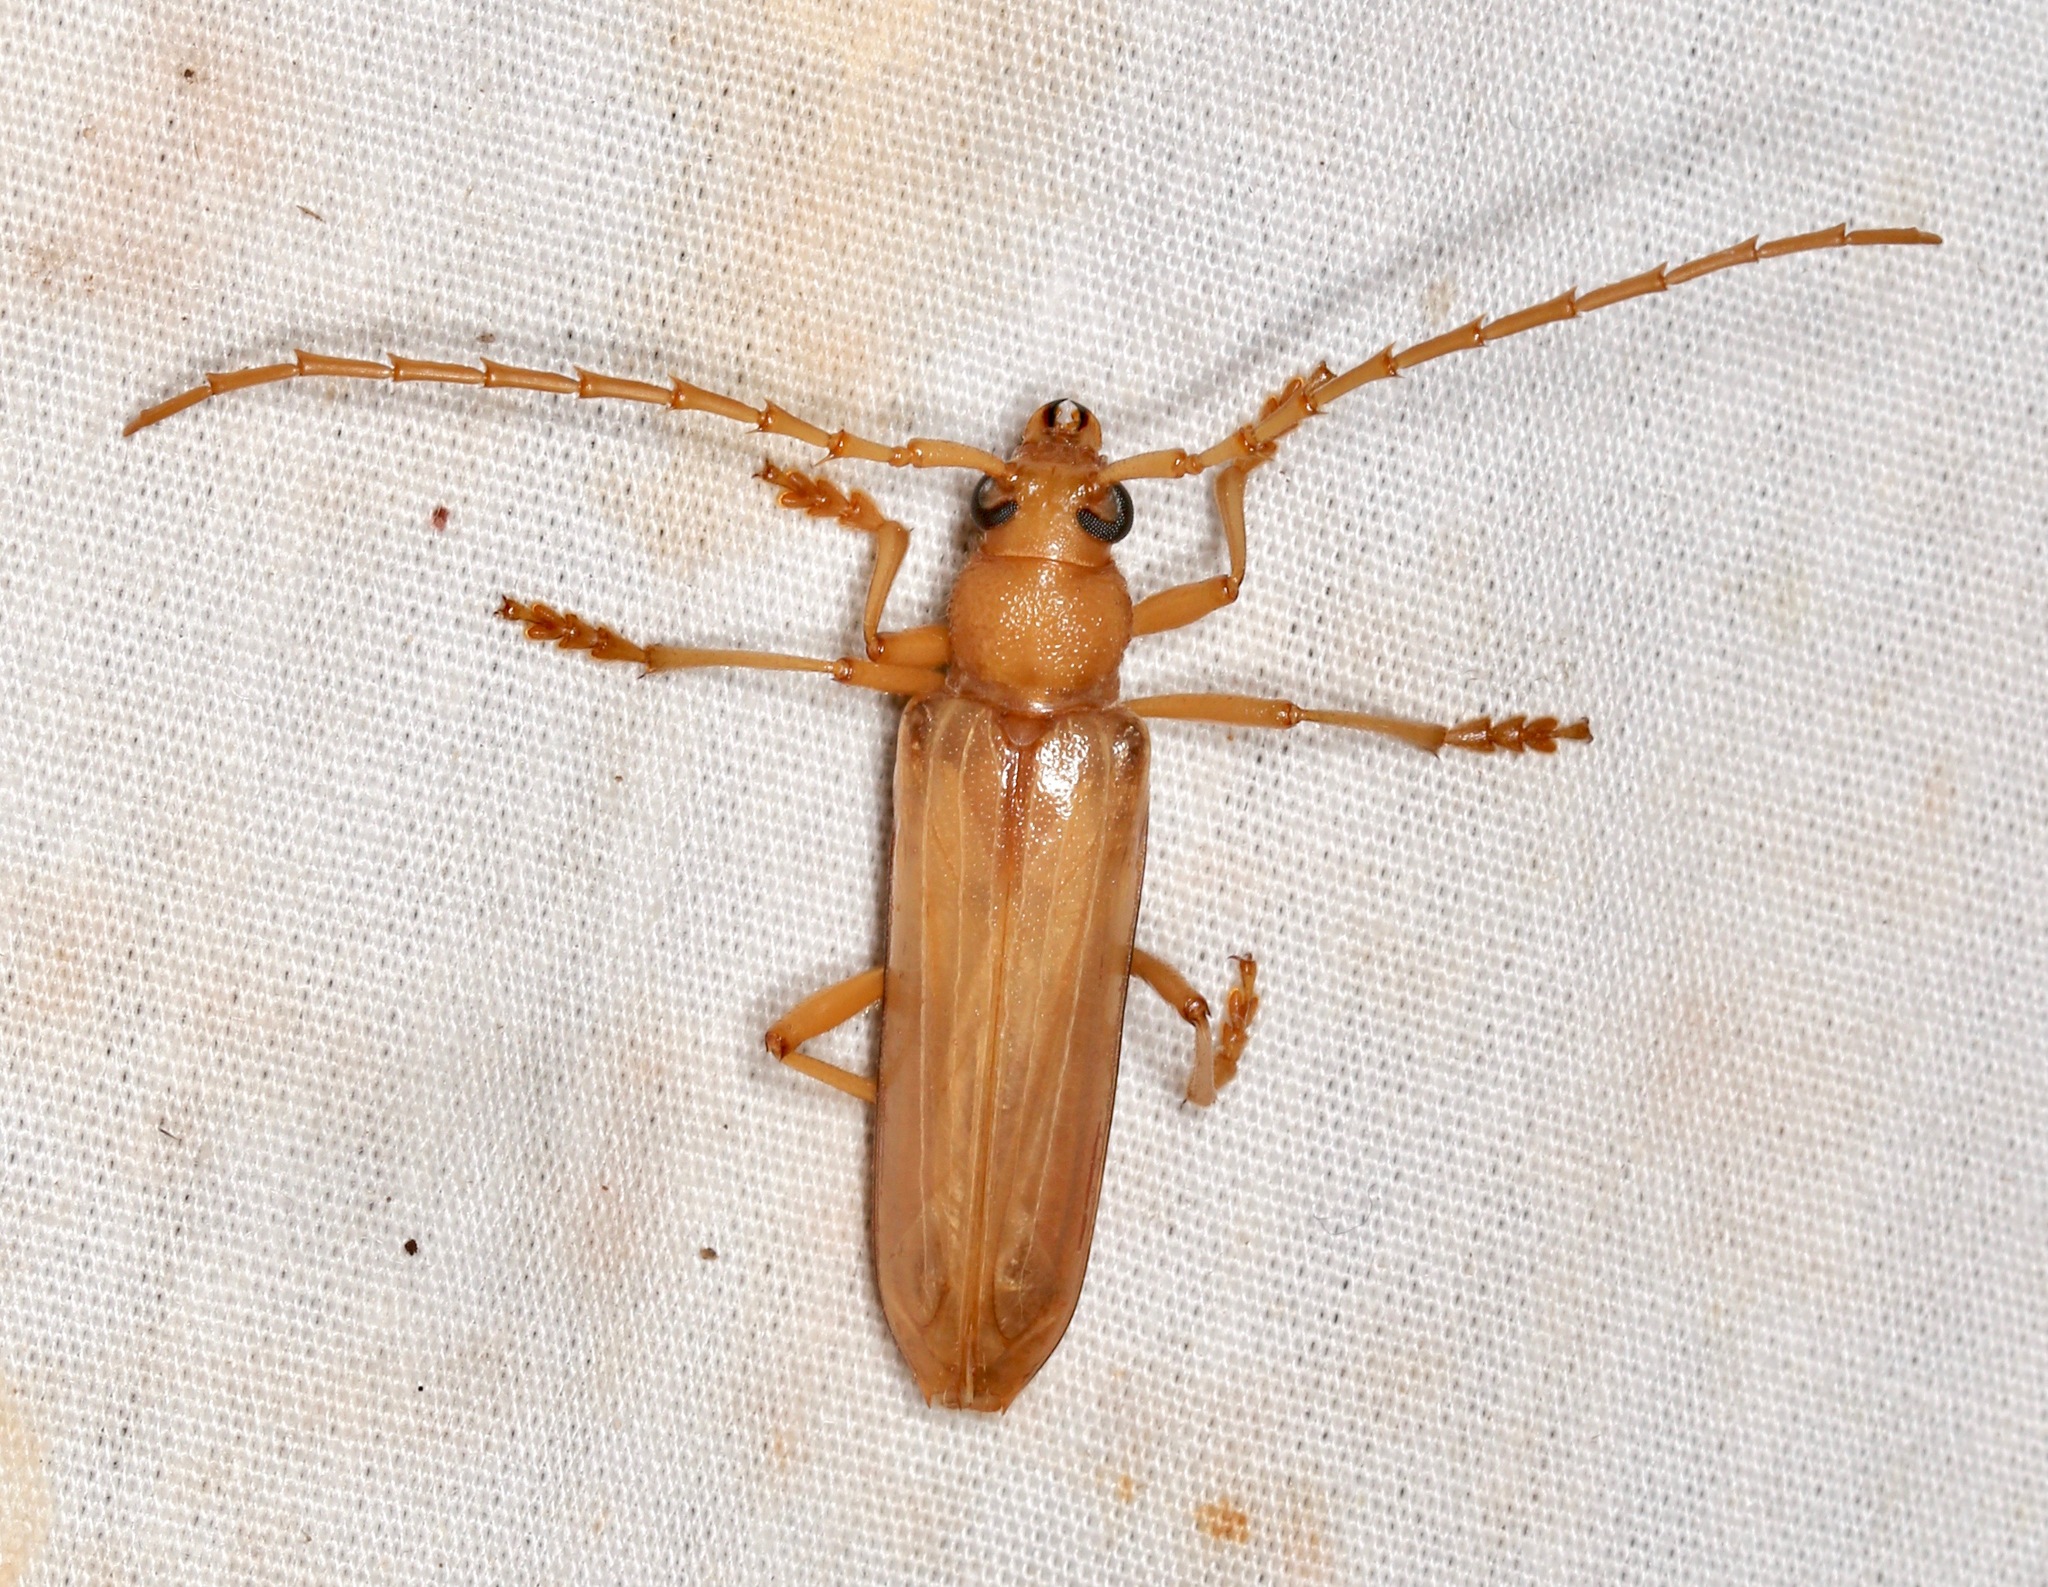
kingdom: Animalia
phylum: Arthropoda
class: Insecta
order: Coleoptera
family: Cerambycidae
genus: Atylostagma
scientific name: Atylostagma polita
